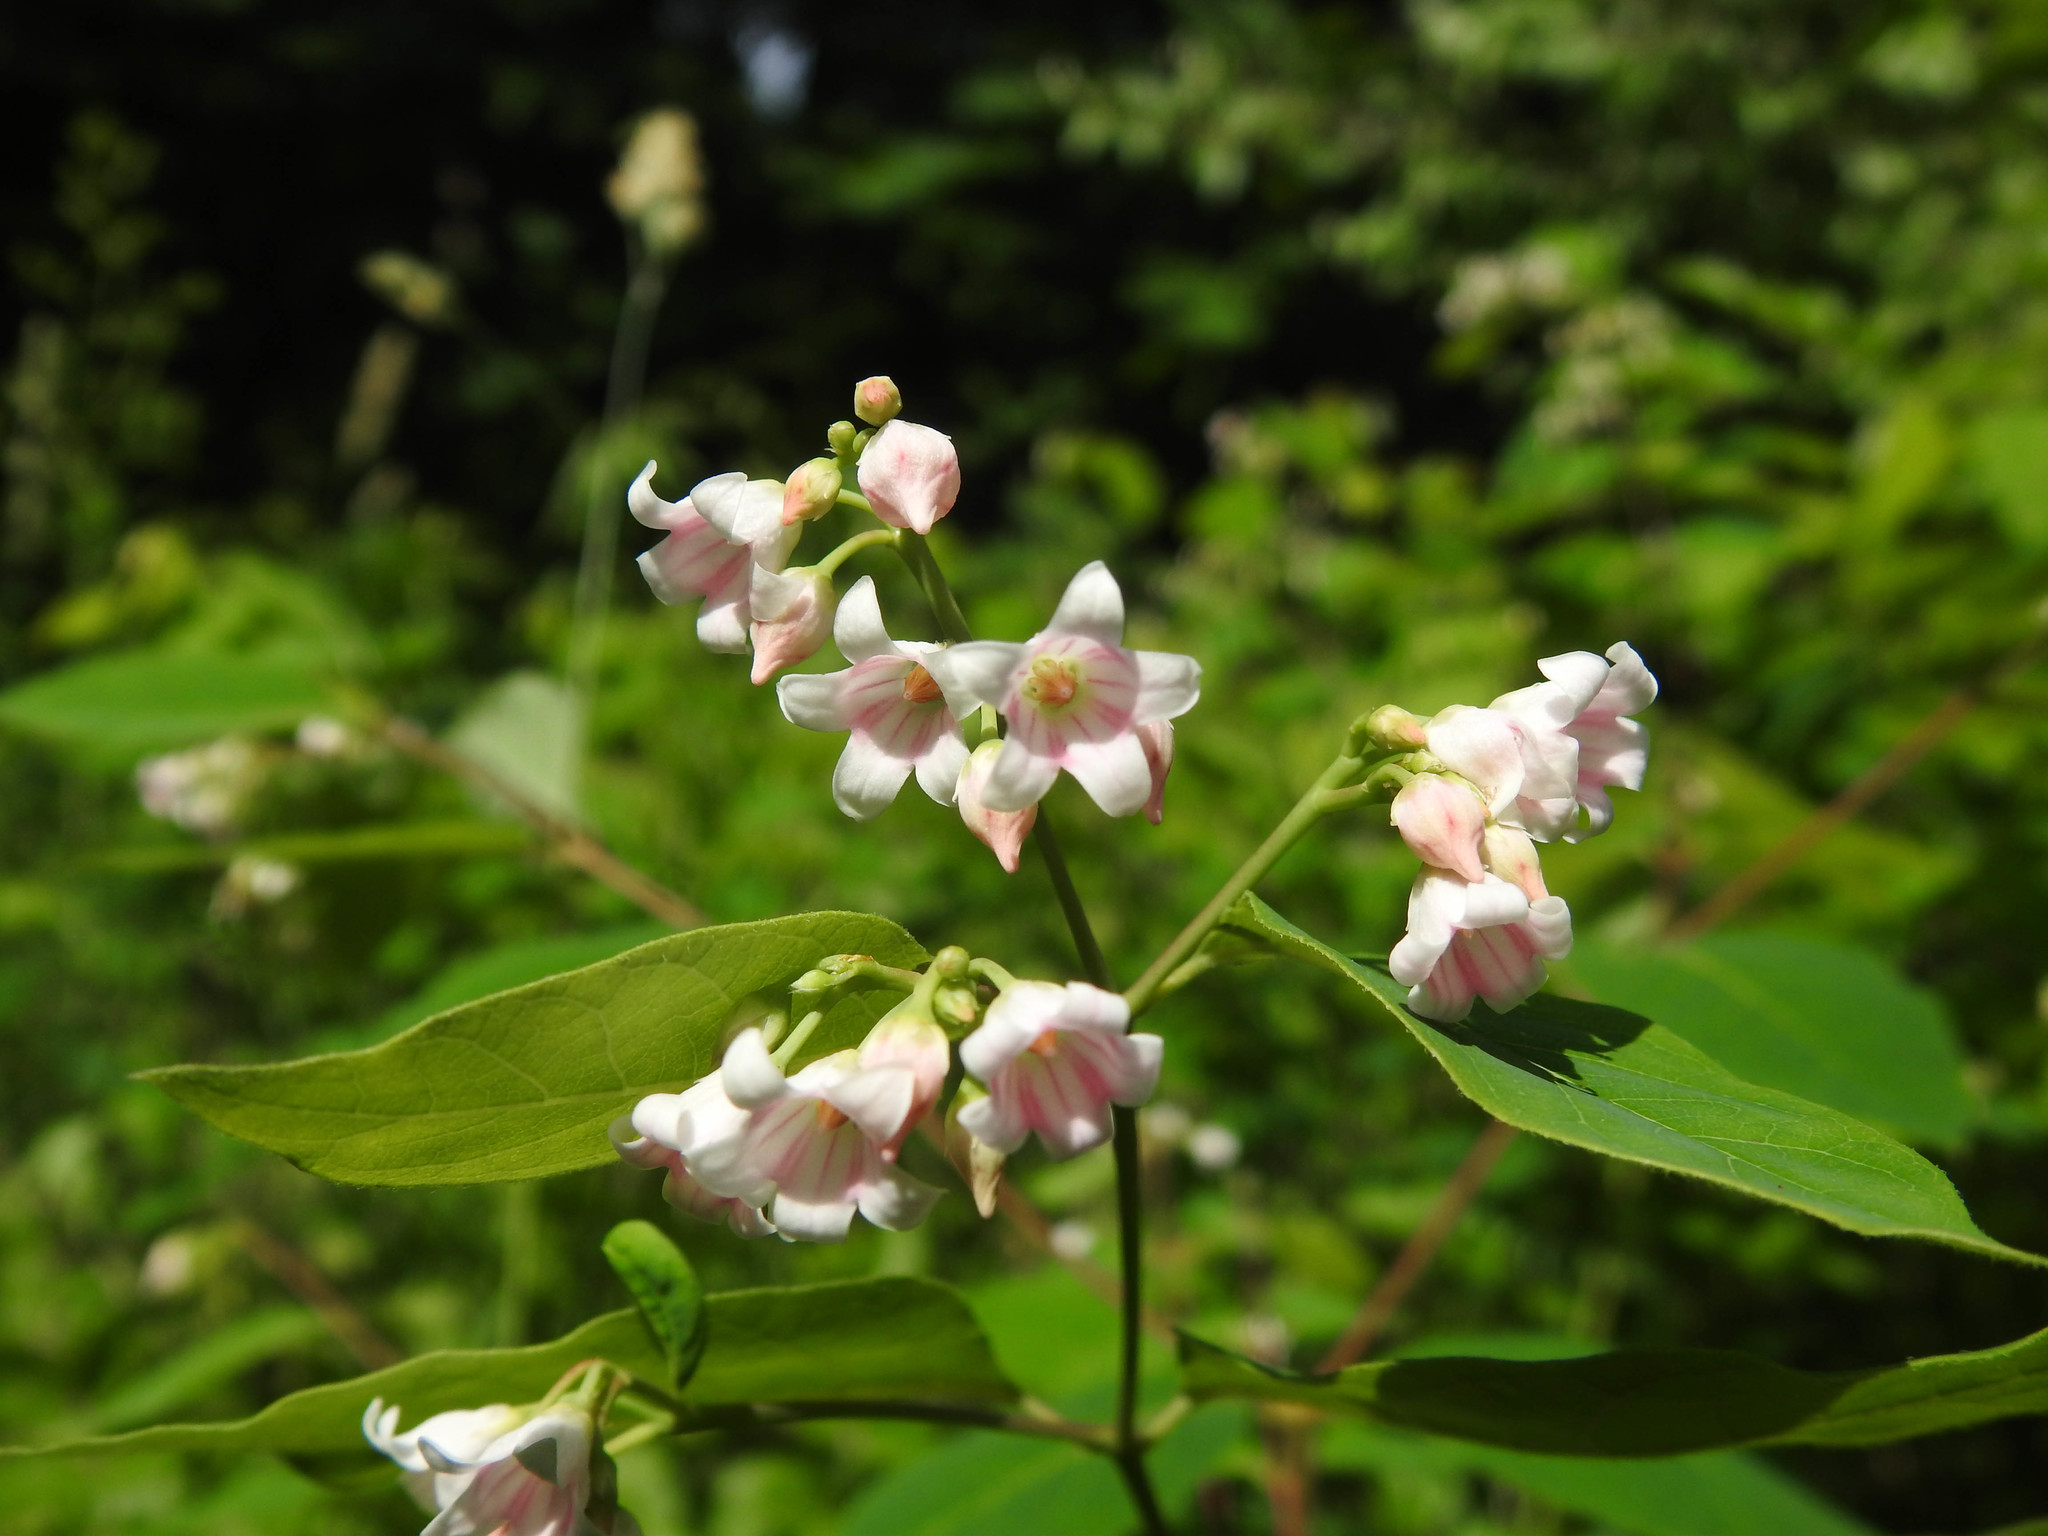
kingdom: Plantae
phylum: Tracheophyta
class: Magnoliopsida
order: Gentianales
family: Apocynaceae
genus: Apocynum
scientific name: Apocynum androsaemifolium
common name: Spreading dogbane
